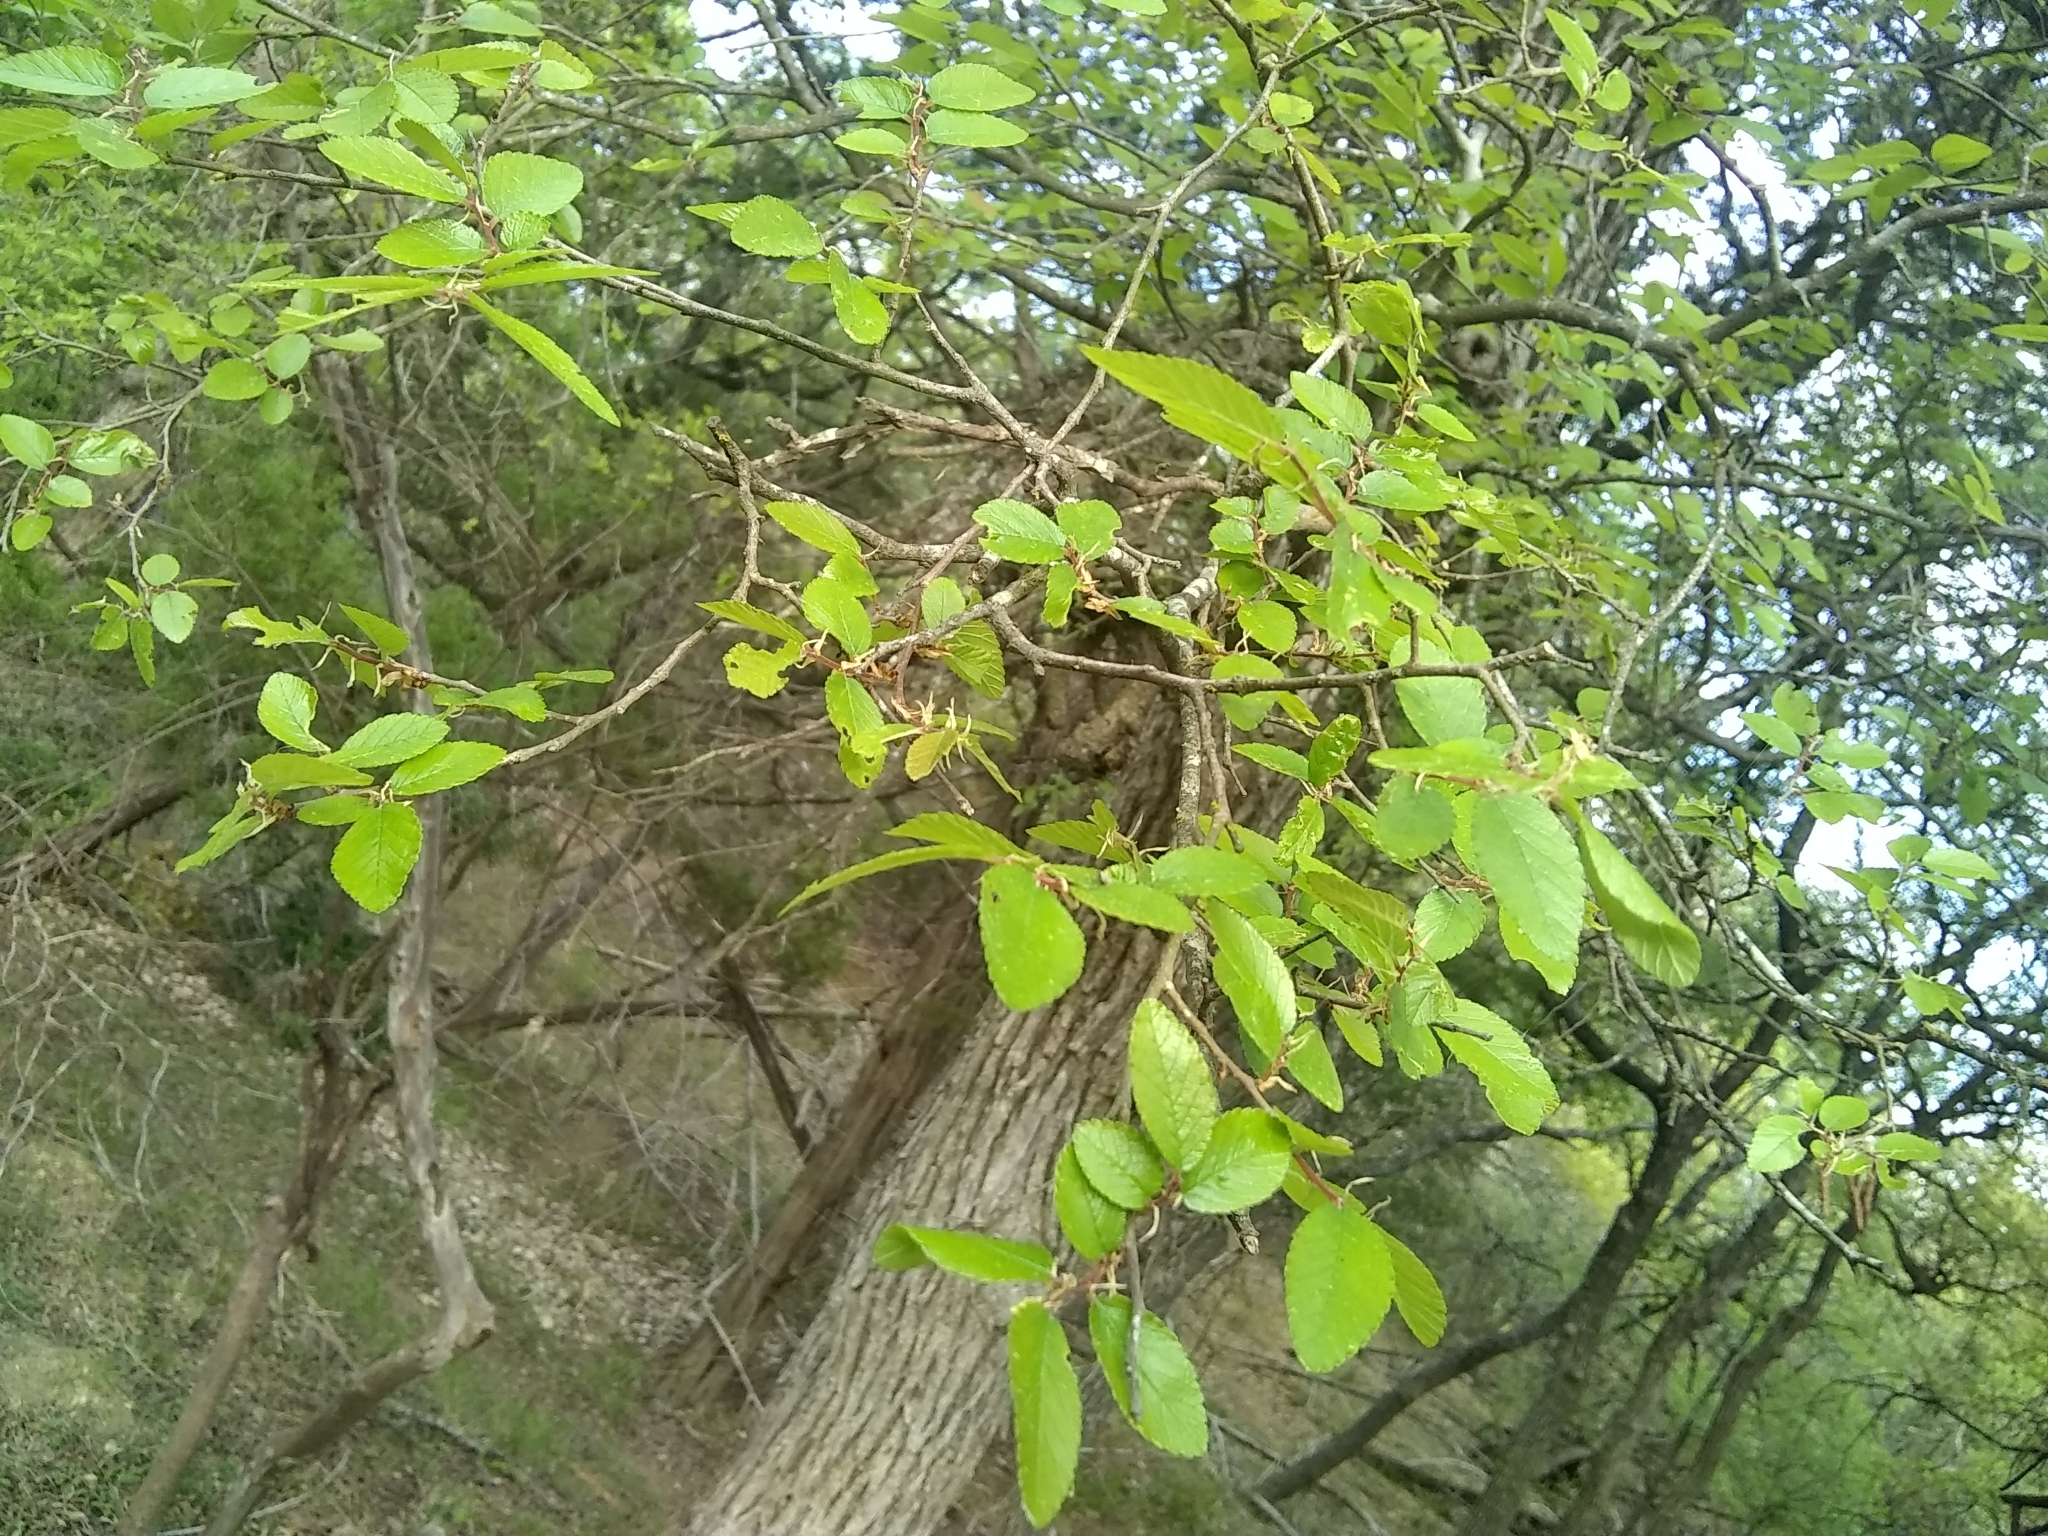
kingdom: Plantae
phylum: Tracheophyta
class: Magnoliopsida
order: Rosales
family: Ulmaceae
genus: Ulmus
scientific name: Ulmus crassifolia
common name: Basket elm
